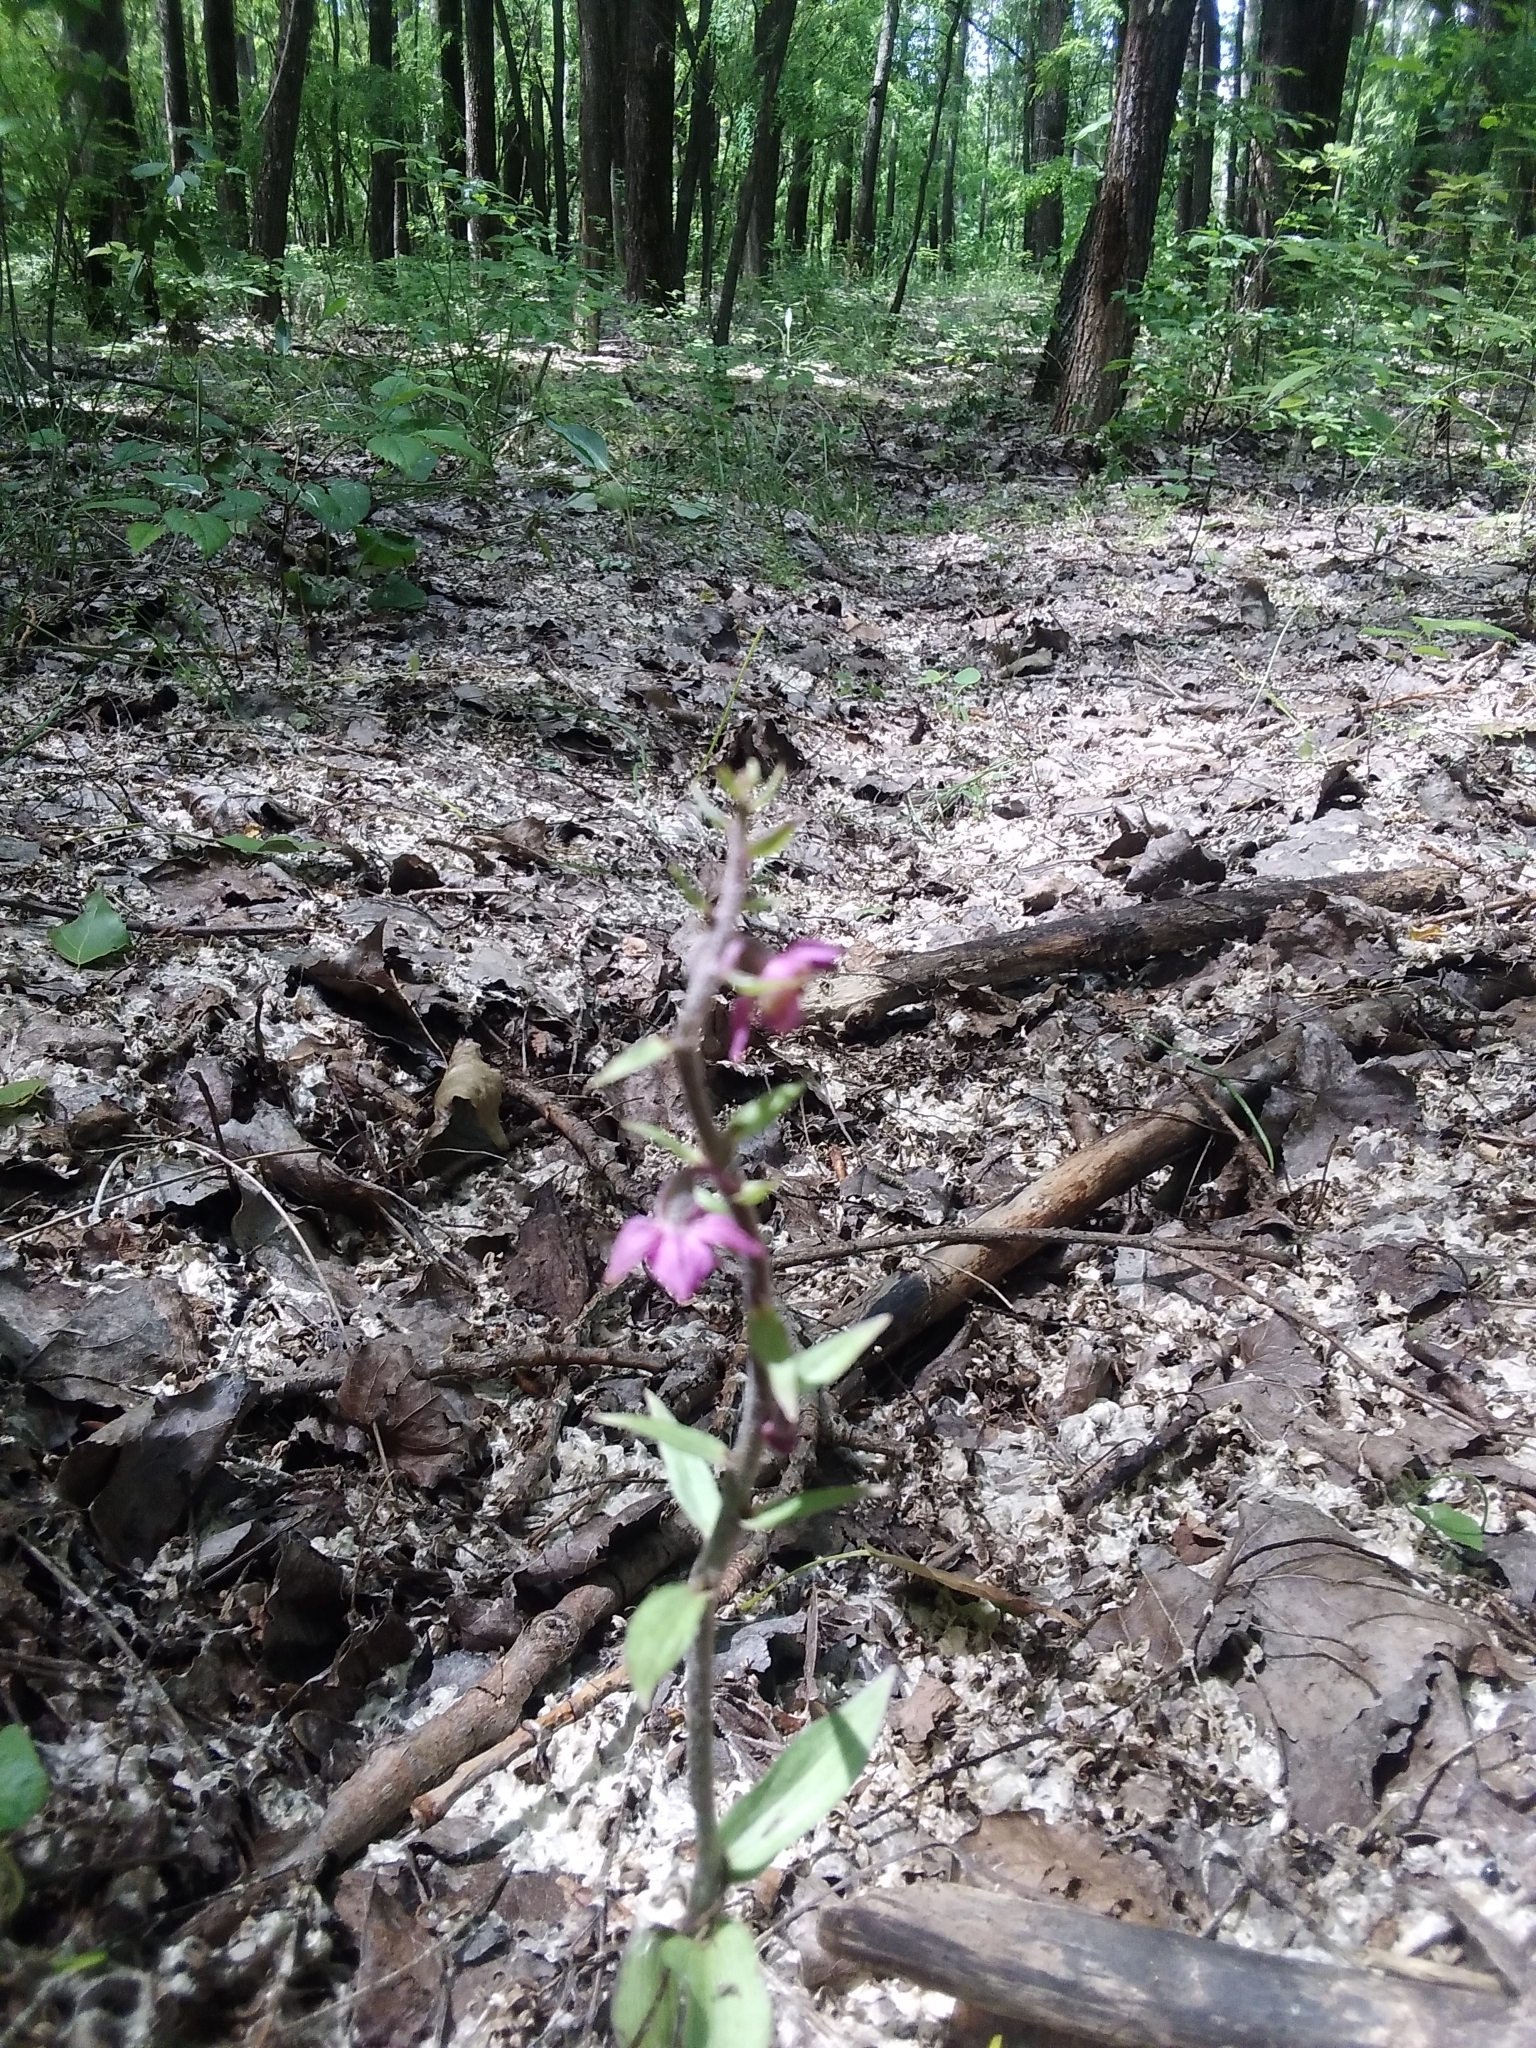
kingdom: Plantae
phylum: Tracheophyta
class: Liliopsida
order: Asparagales
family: Orchidaceae
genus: Epipactis
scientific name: Epipactis atrorubens
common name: Dark-red helleborine
